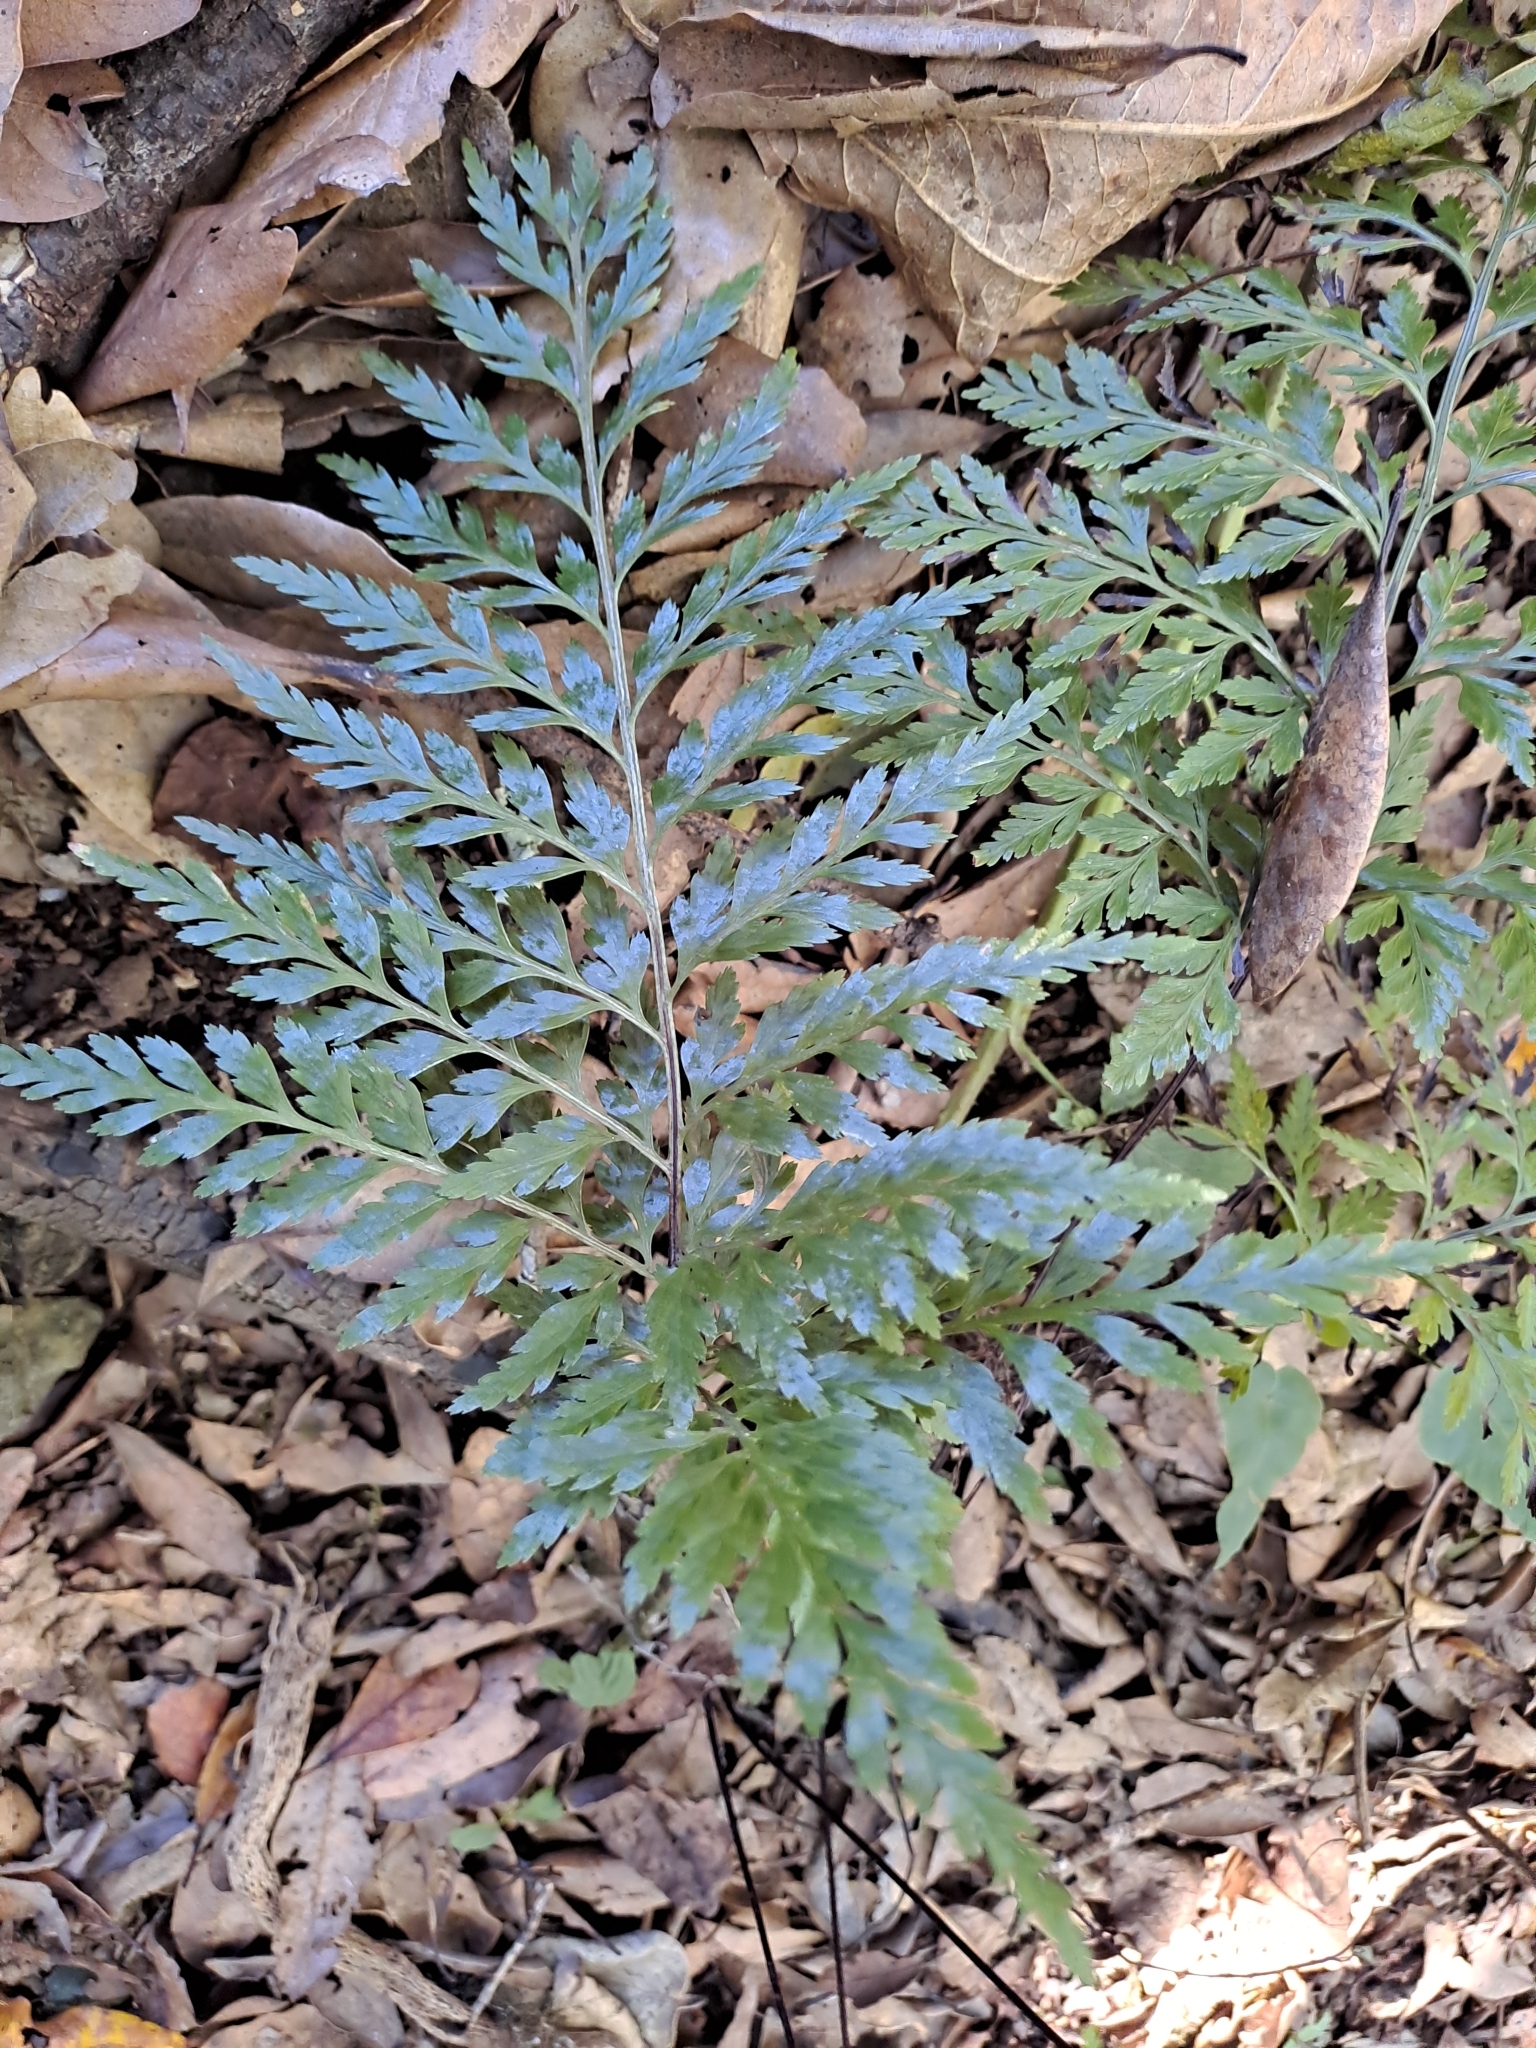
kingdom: Plantae
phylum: Tracheophyta
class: Polypodiopsida
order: Polypodiales
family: Aspleniaceae
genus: Asplenium
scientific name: Asplenium onopteris
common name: Irish spleenwort
